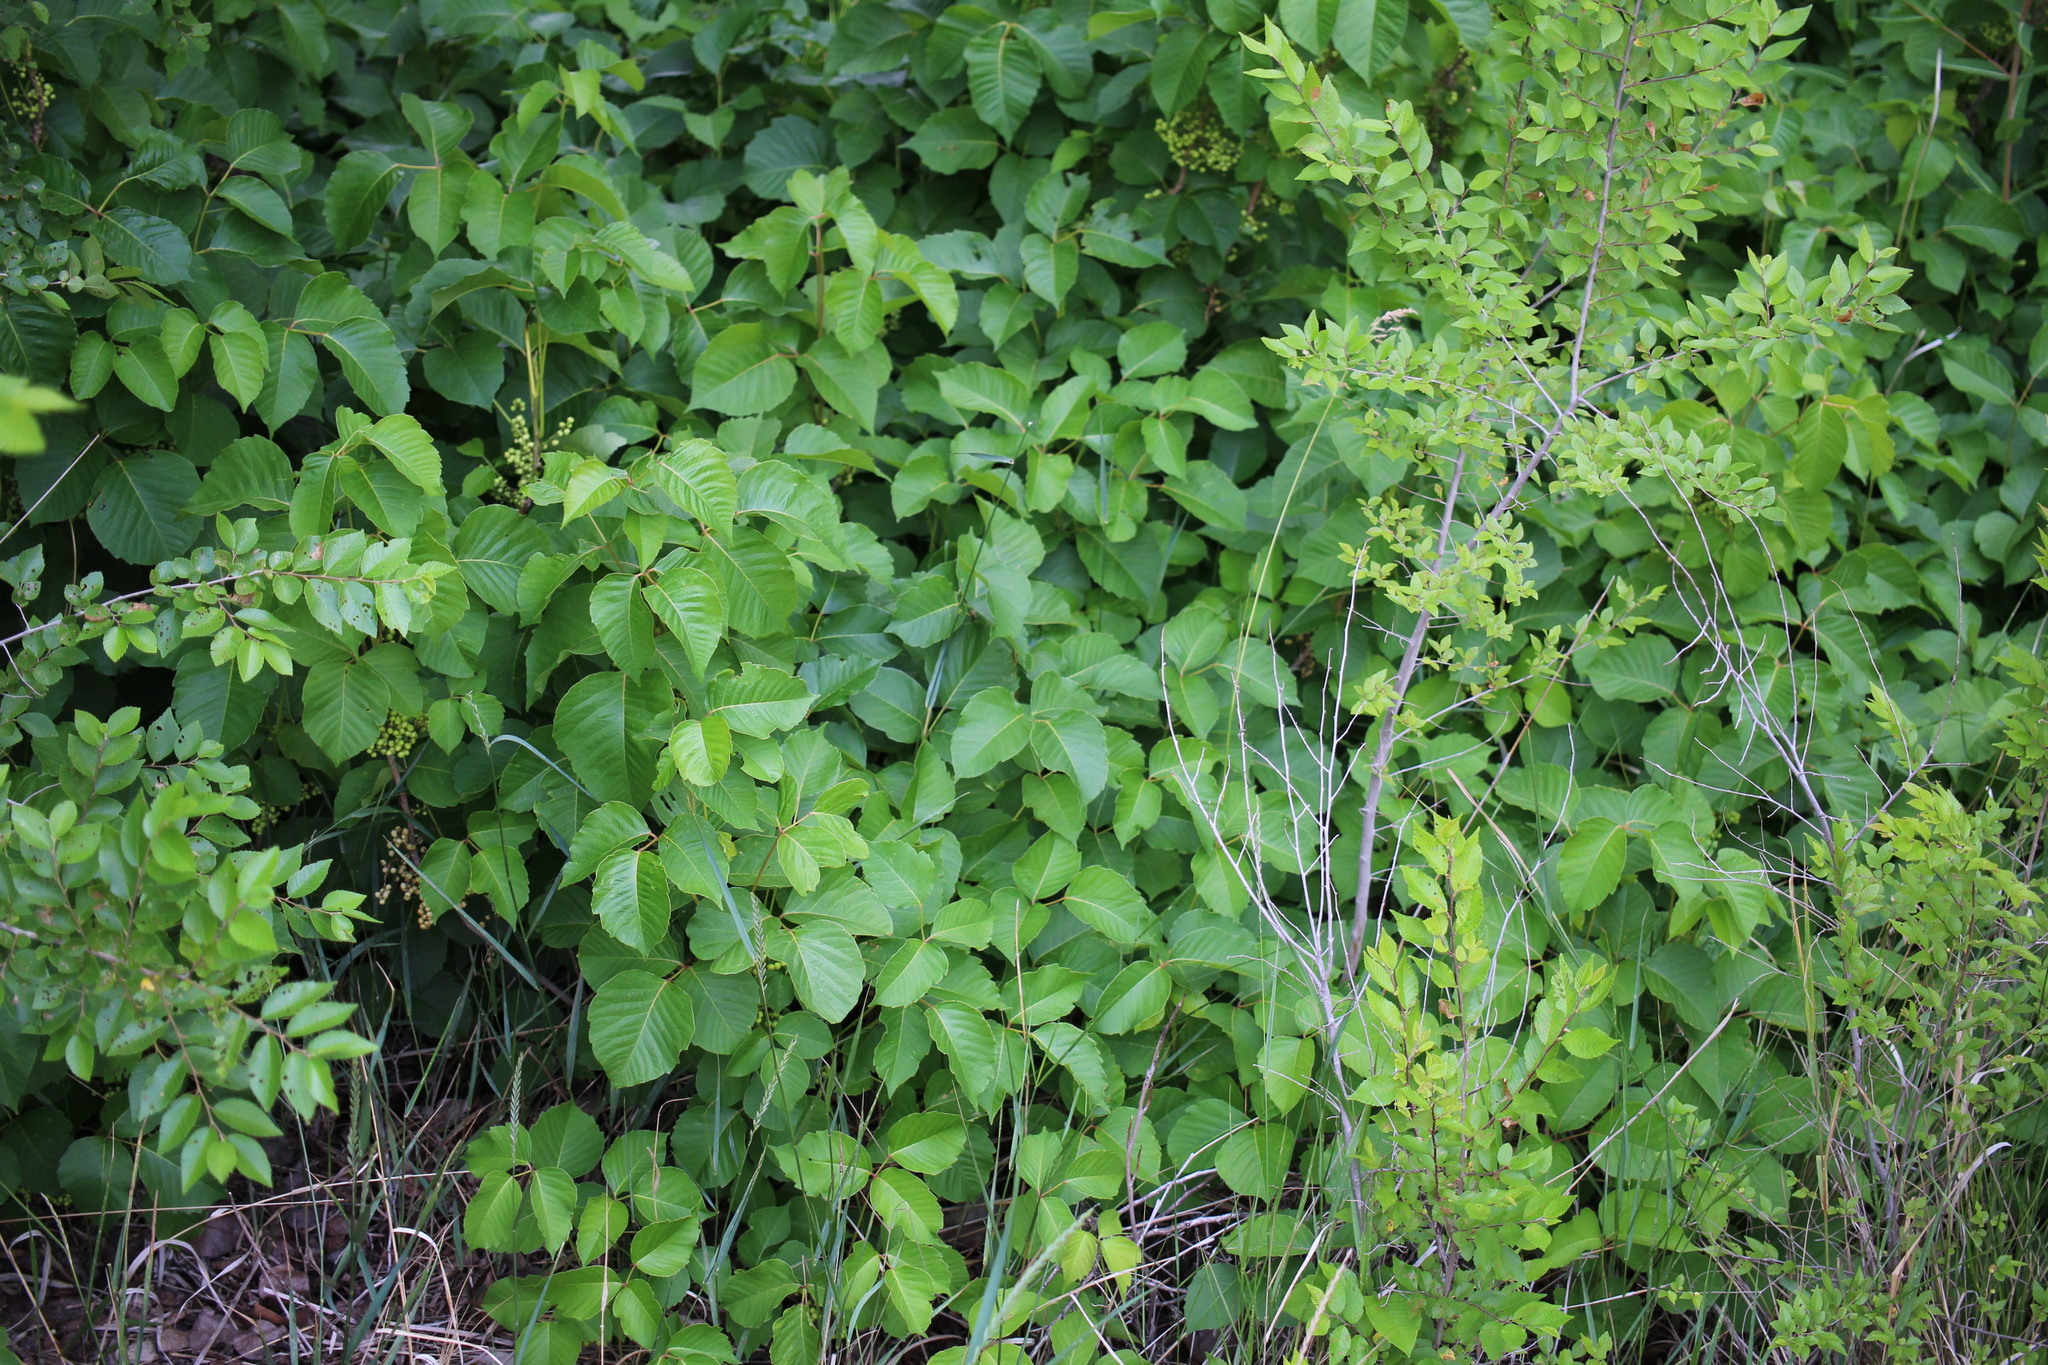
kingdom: Plantae
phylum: Tracheophyta
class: Magnoliopsida
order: Sapindales
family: Anacardiaceae
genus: Toxicodendron
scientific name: Toxicodendron rydbergii
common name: Rydberg's poison-ivy
